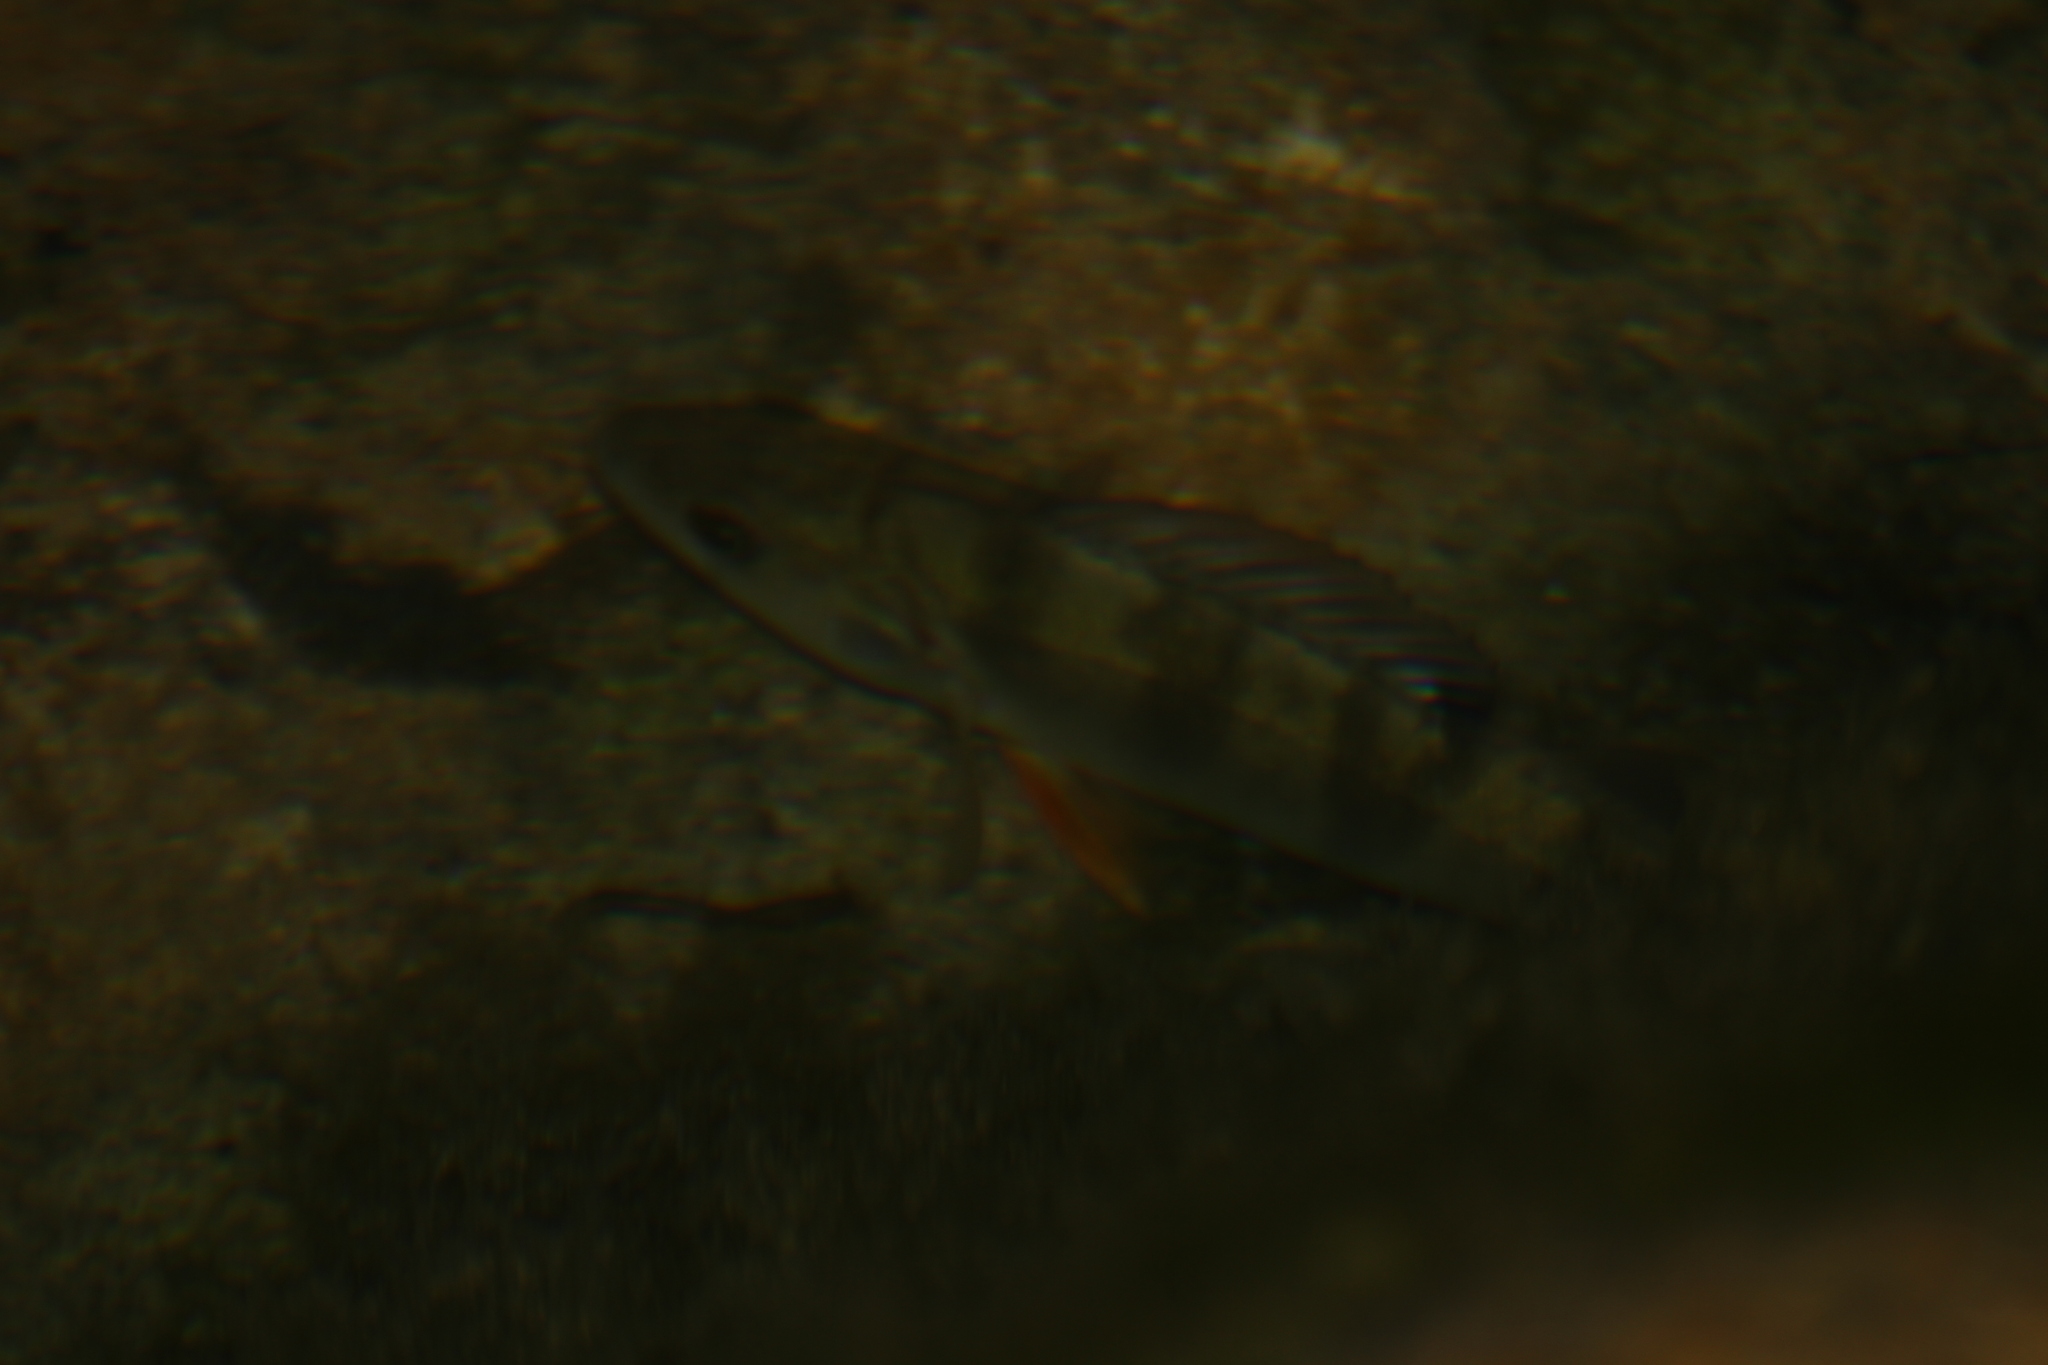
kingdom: Animalia
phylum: Chordata
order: Perciformes
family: Percidae
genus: Perca
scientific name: Perca fluviatilis
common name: Perch
